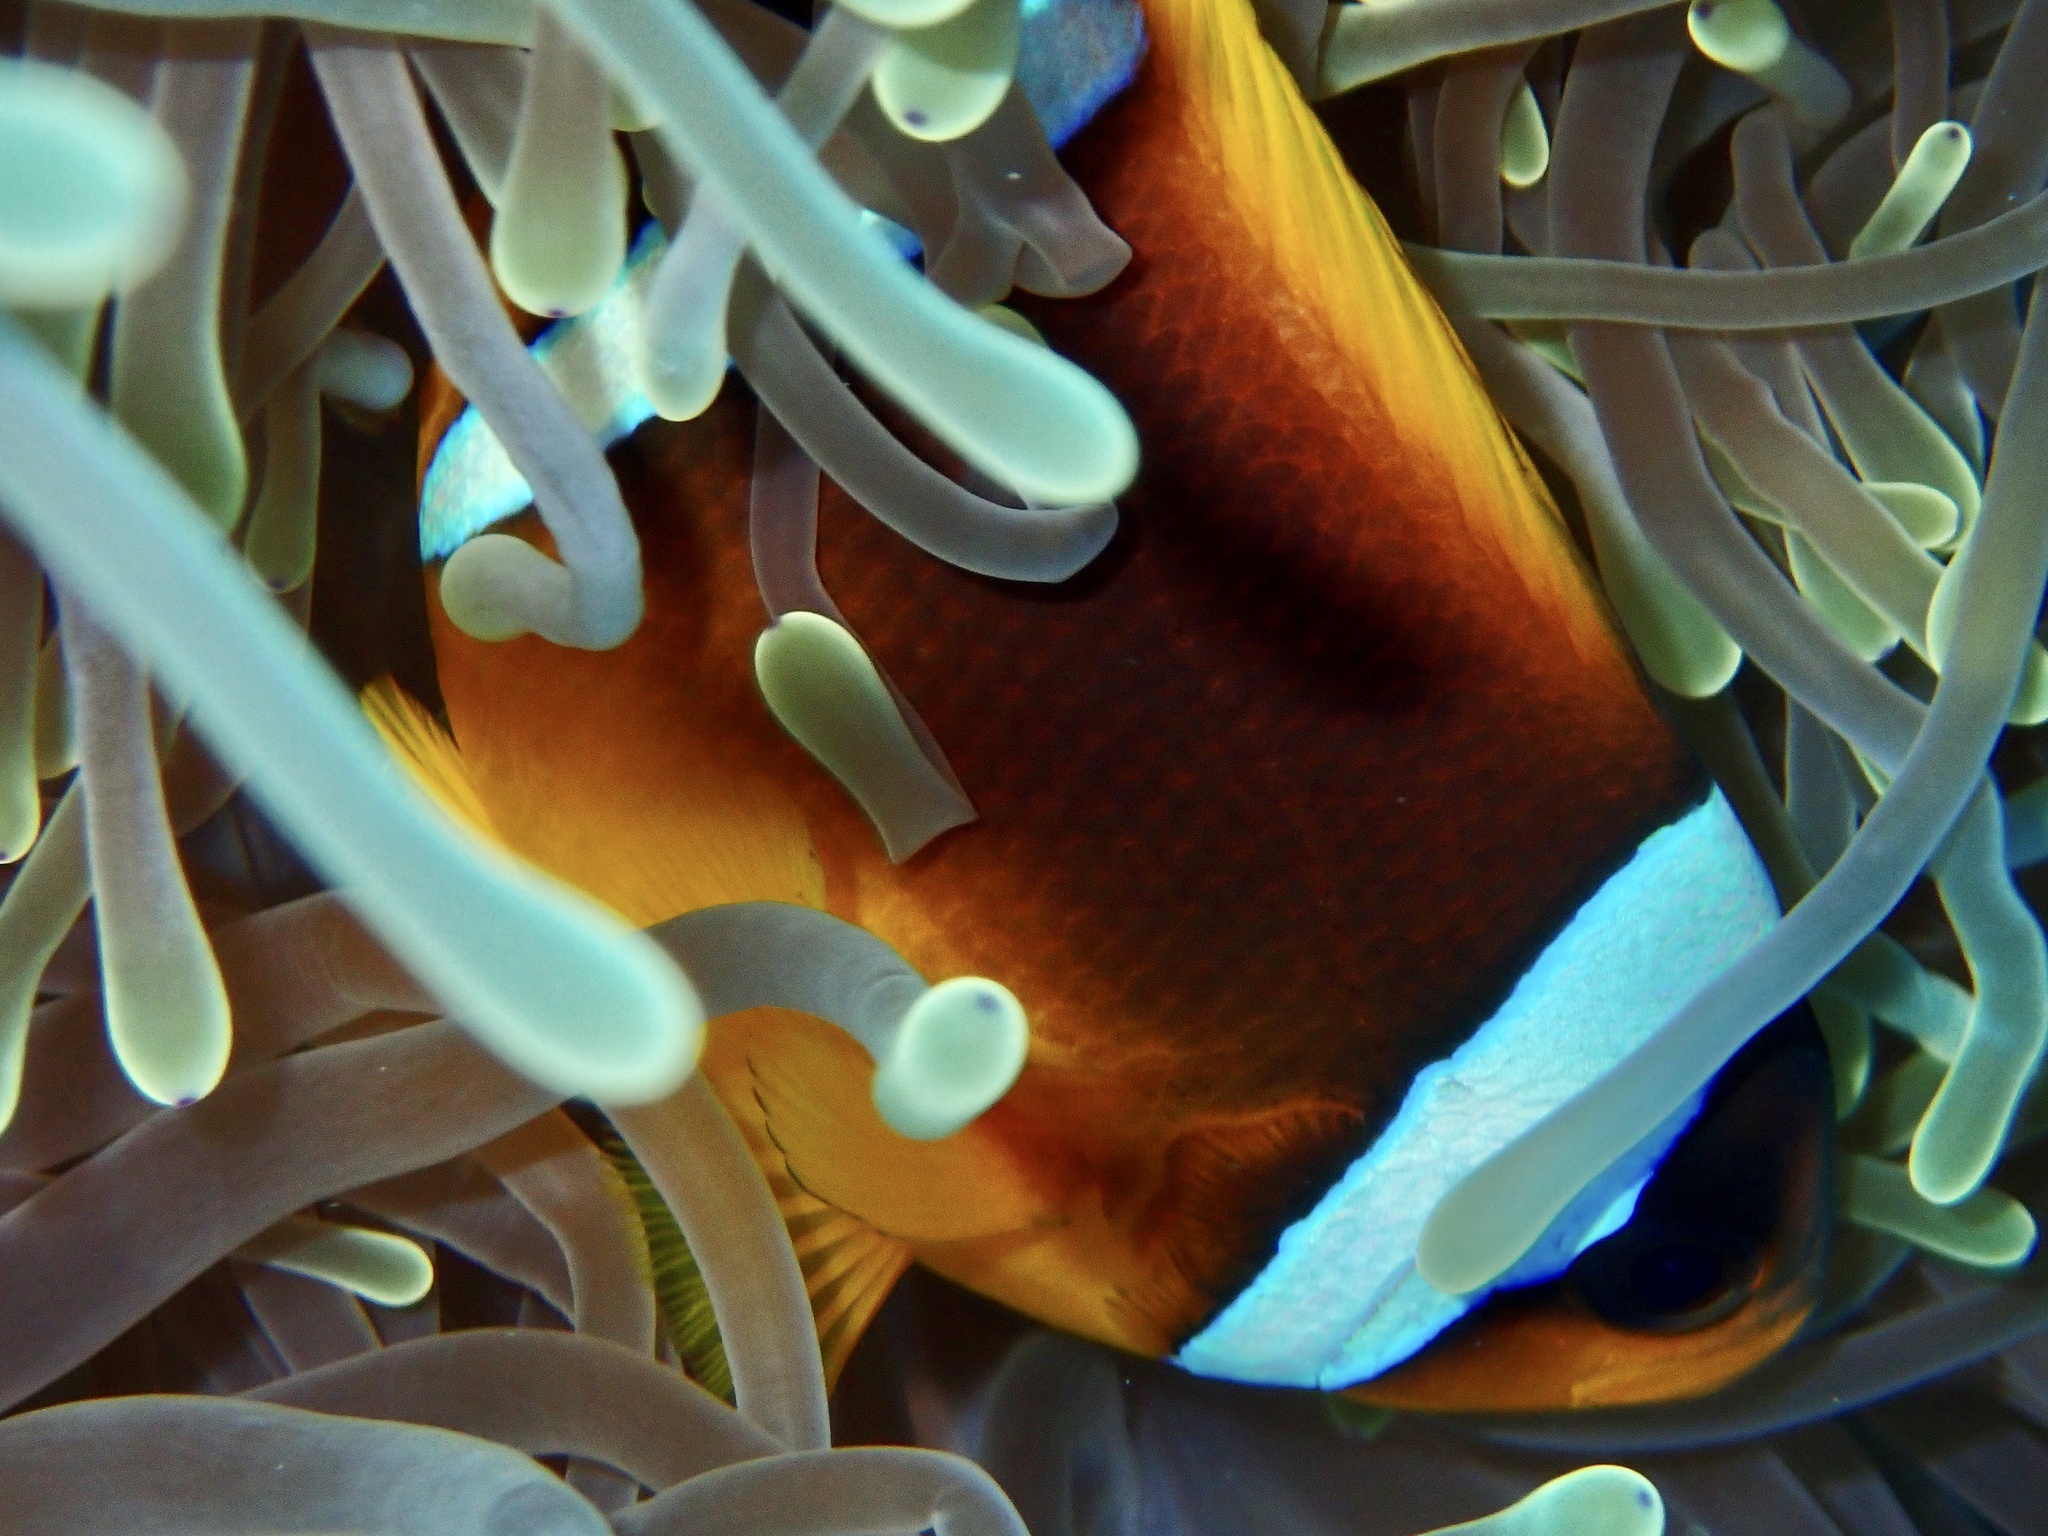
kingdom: Animalia
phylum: Chordata
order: Perciformes
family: Pomacentridae
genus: Amphiprion
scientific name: Amphiprion bicinctus
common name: Two-banded anemonefish
